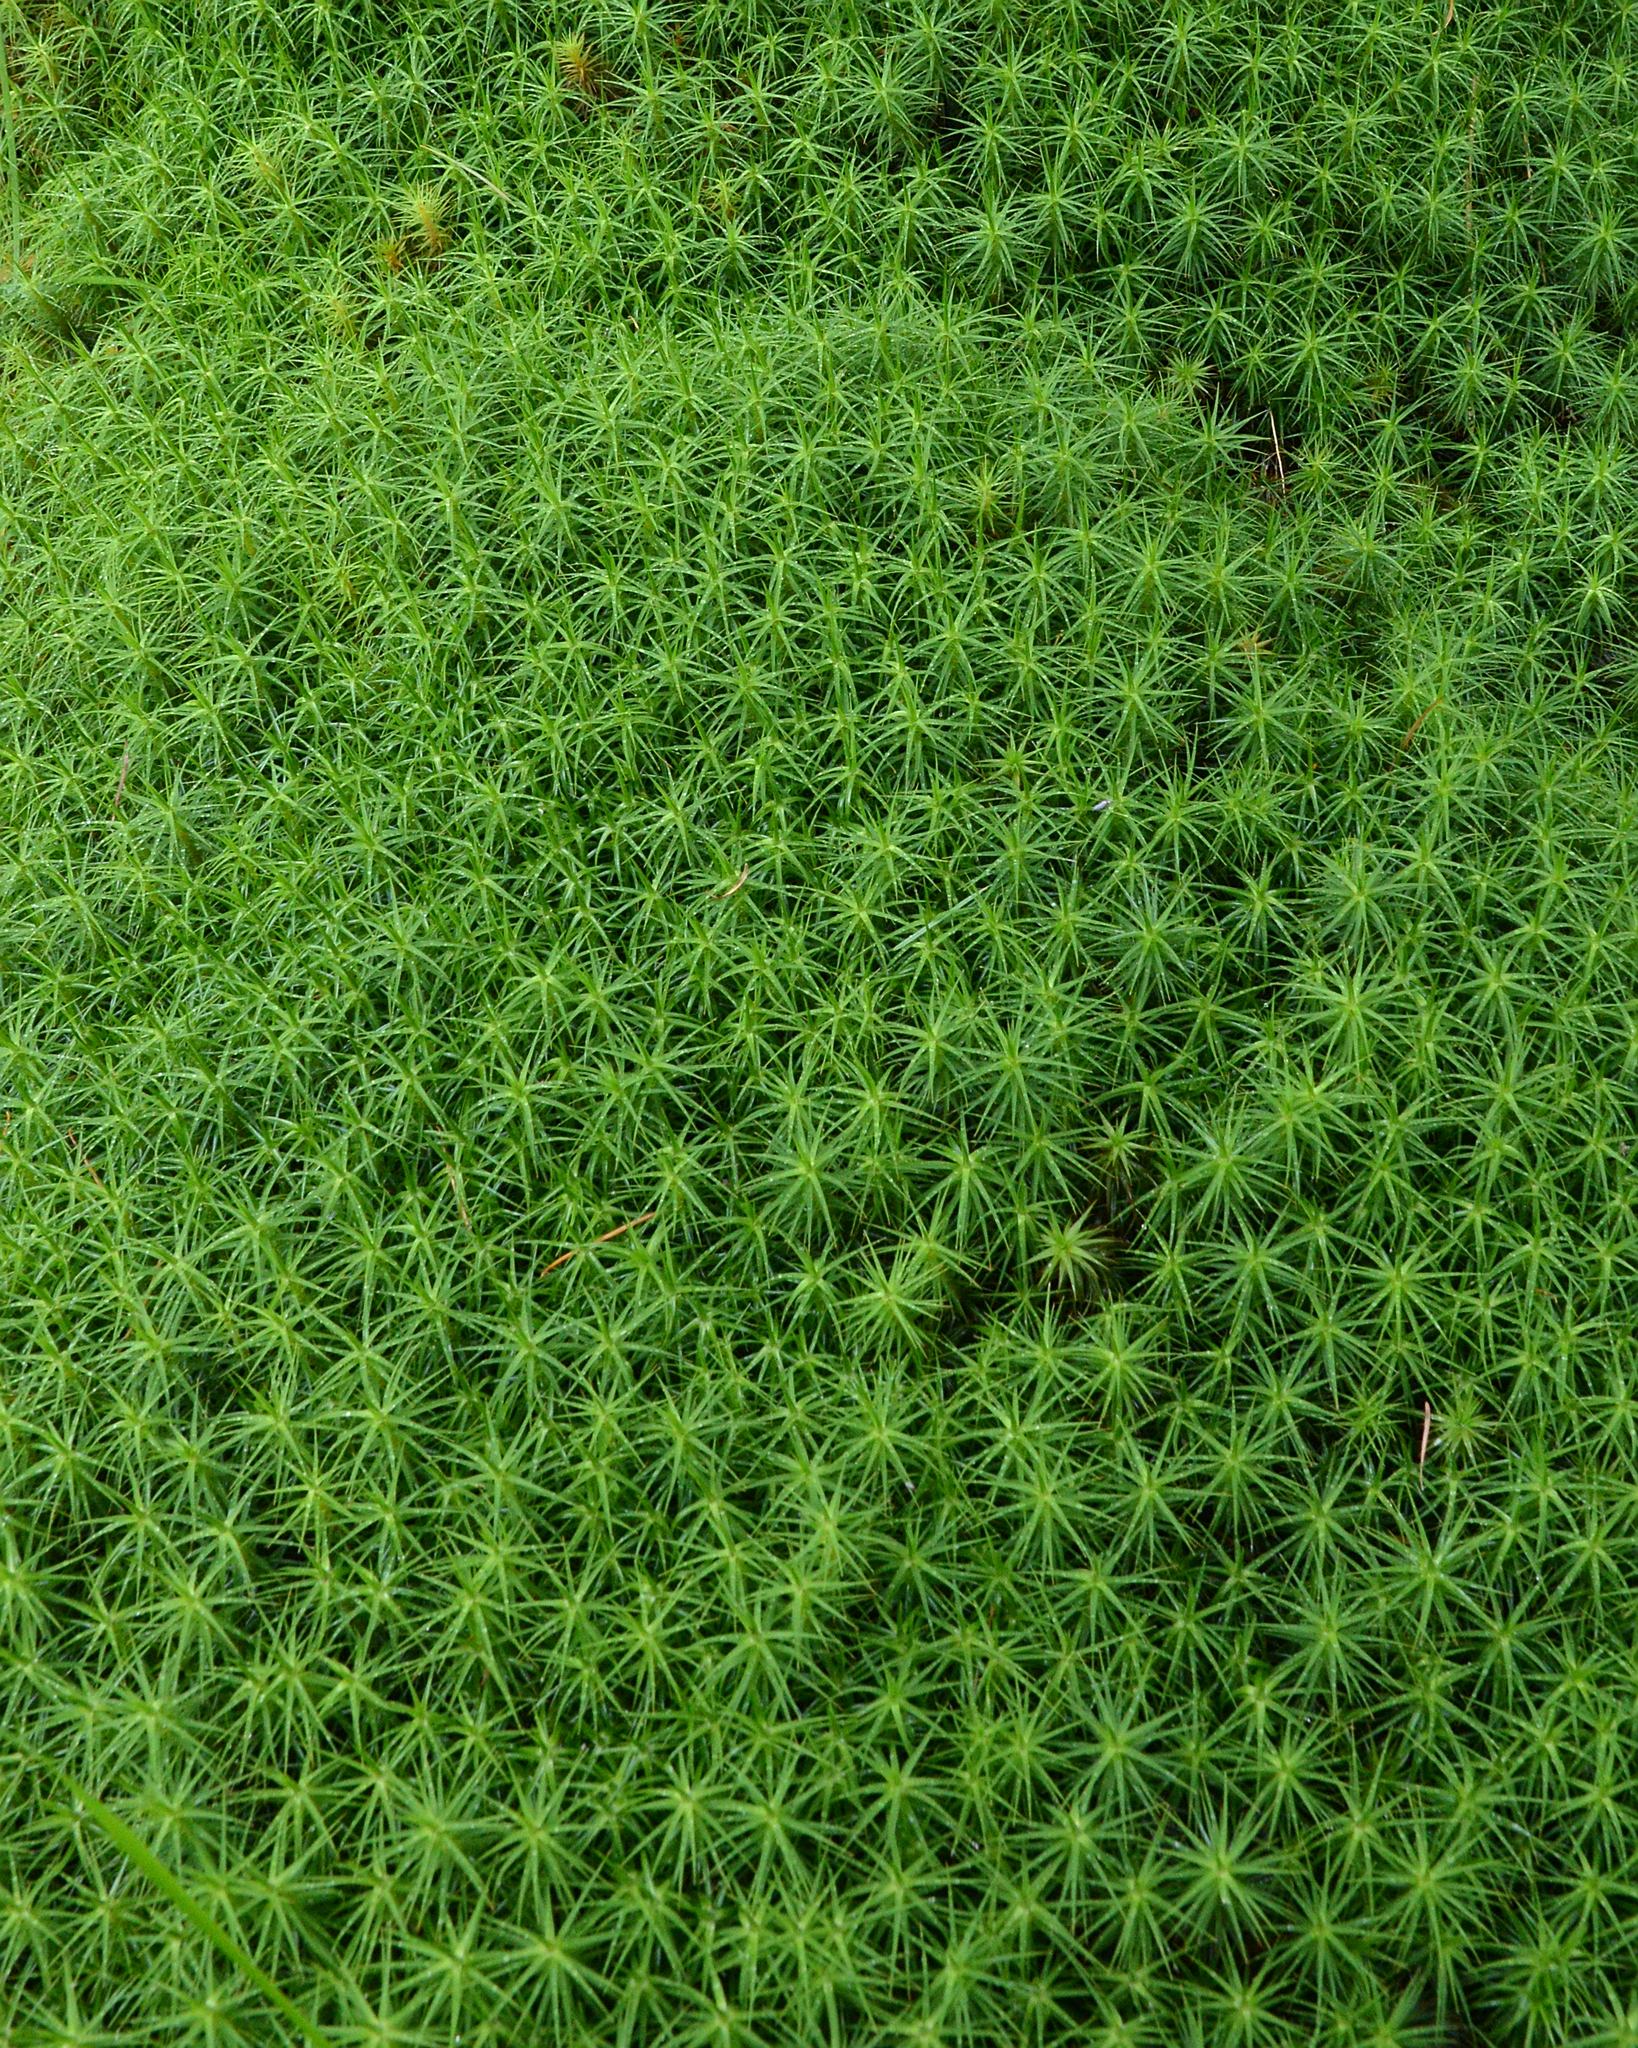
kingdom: Plantae
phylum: Bryophyta
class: Polytrichopsida
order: Polytrichales
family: Polytrichaceae
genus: Polytrichum
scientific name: Polytrichum commune
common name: Common haircap
